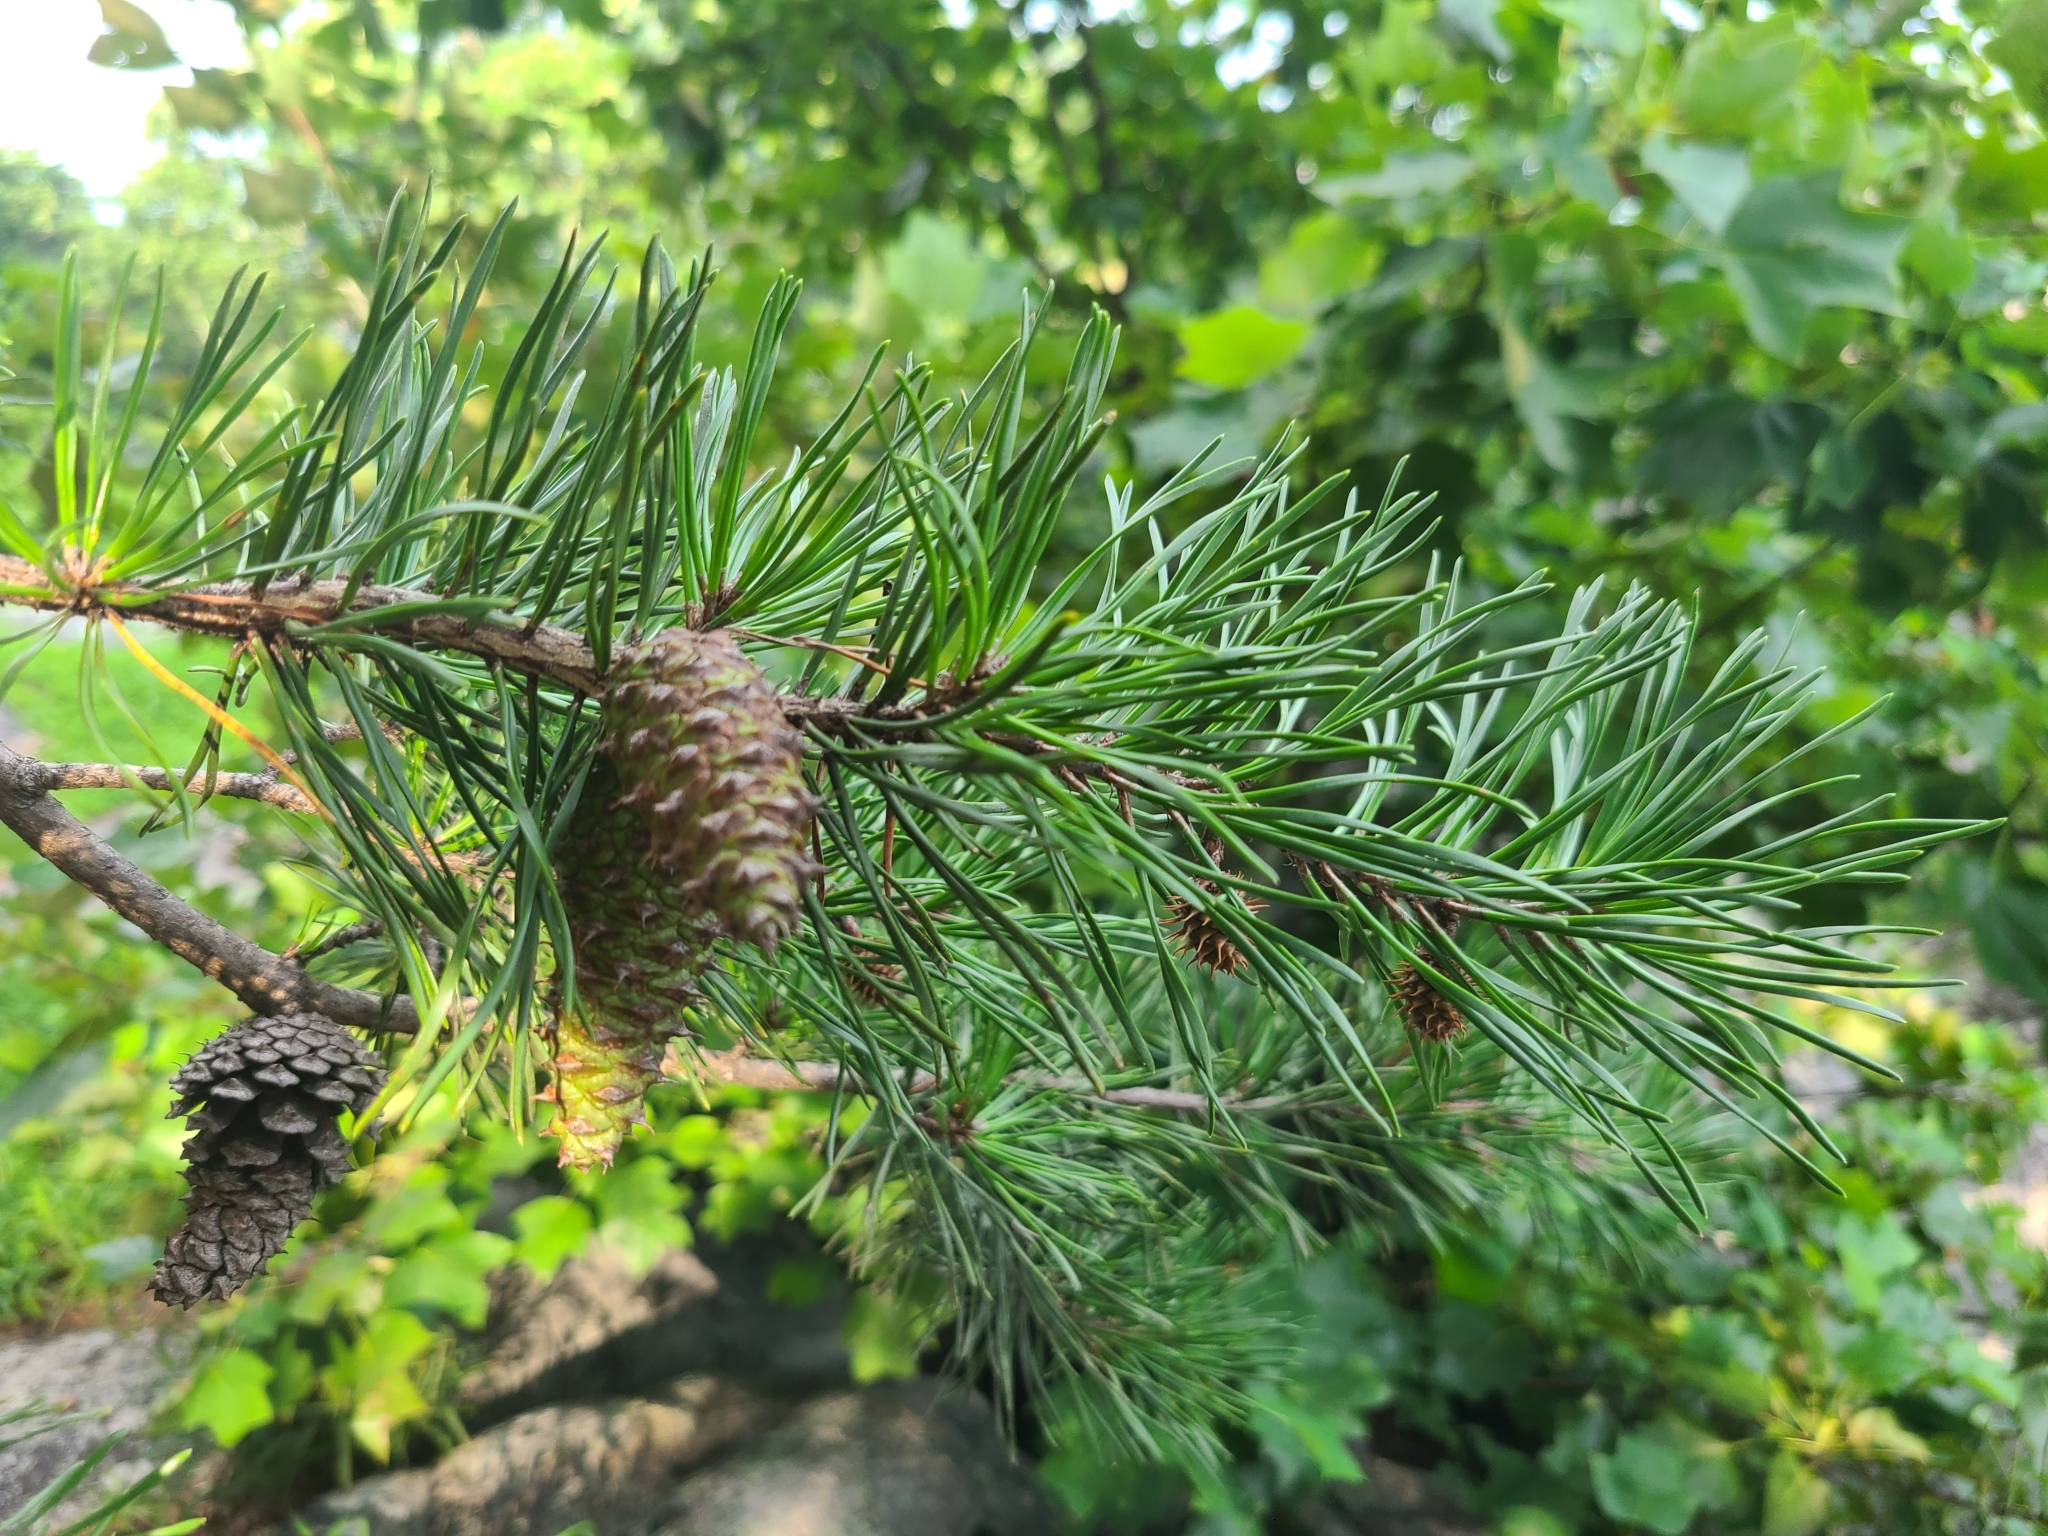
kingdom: Plantae
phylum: Tracheophyta
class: Pinopsida
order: Pinales
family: Pinaceae
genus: Pinus
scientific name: Pinus virginiana
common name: Scrub pine
